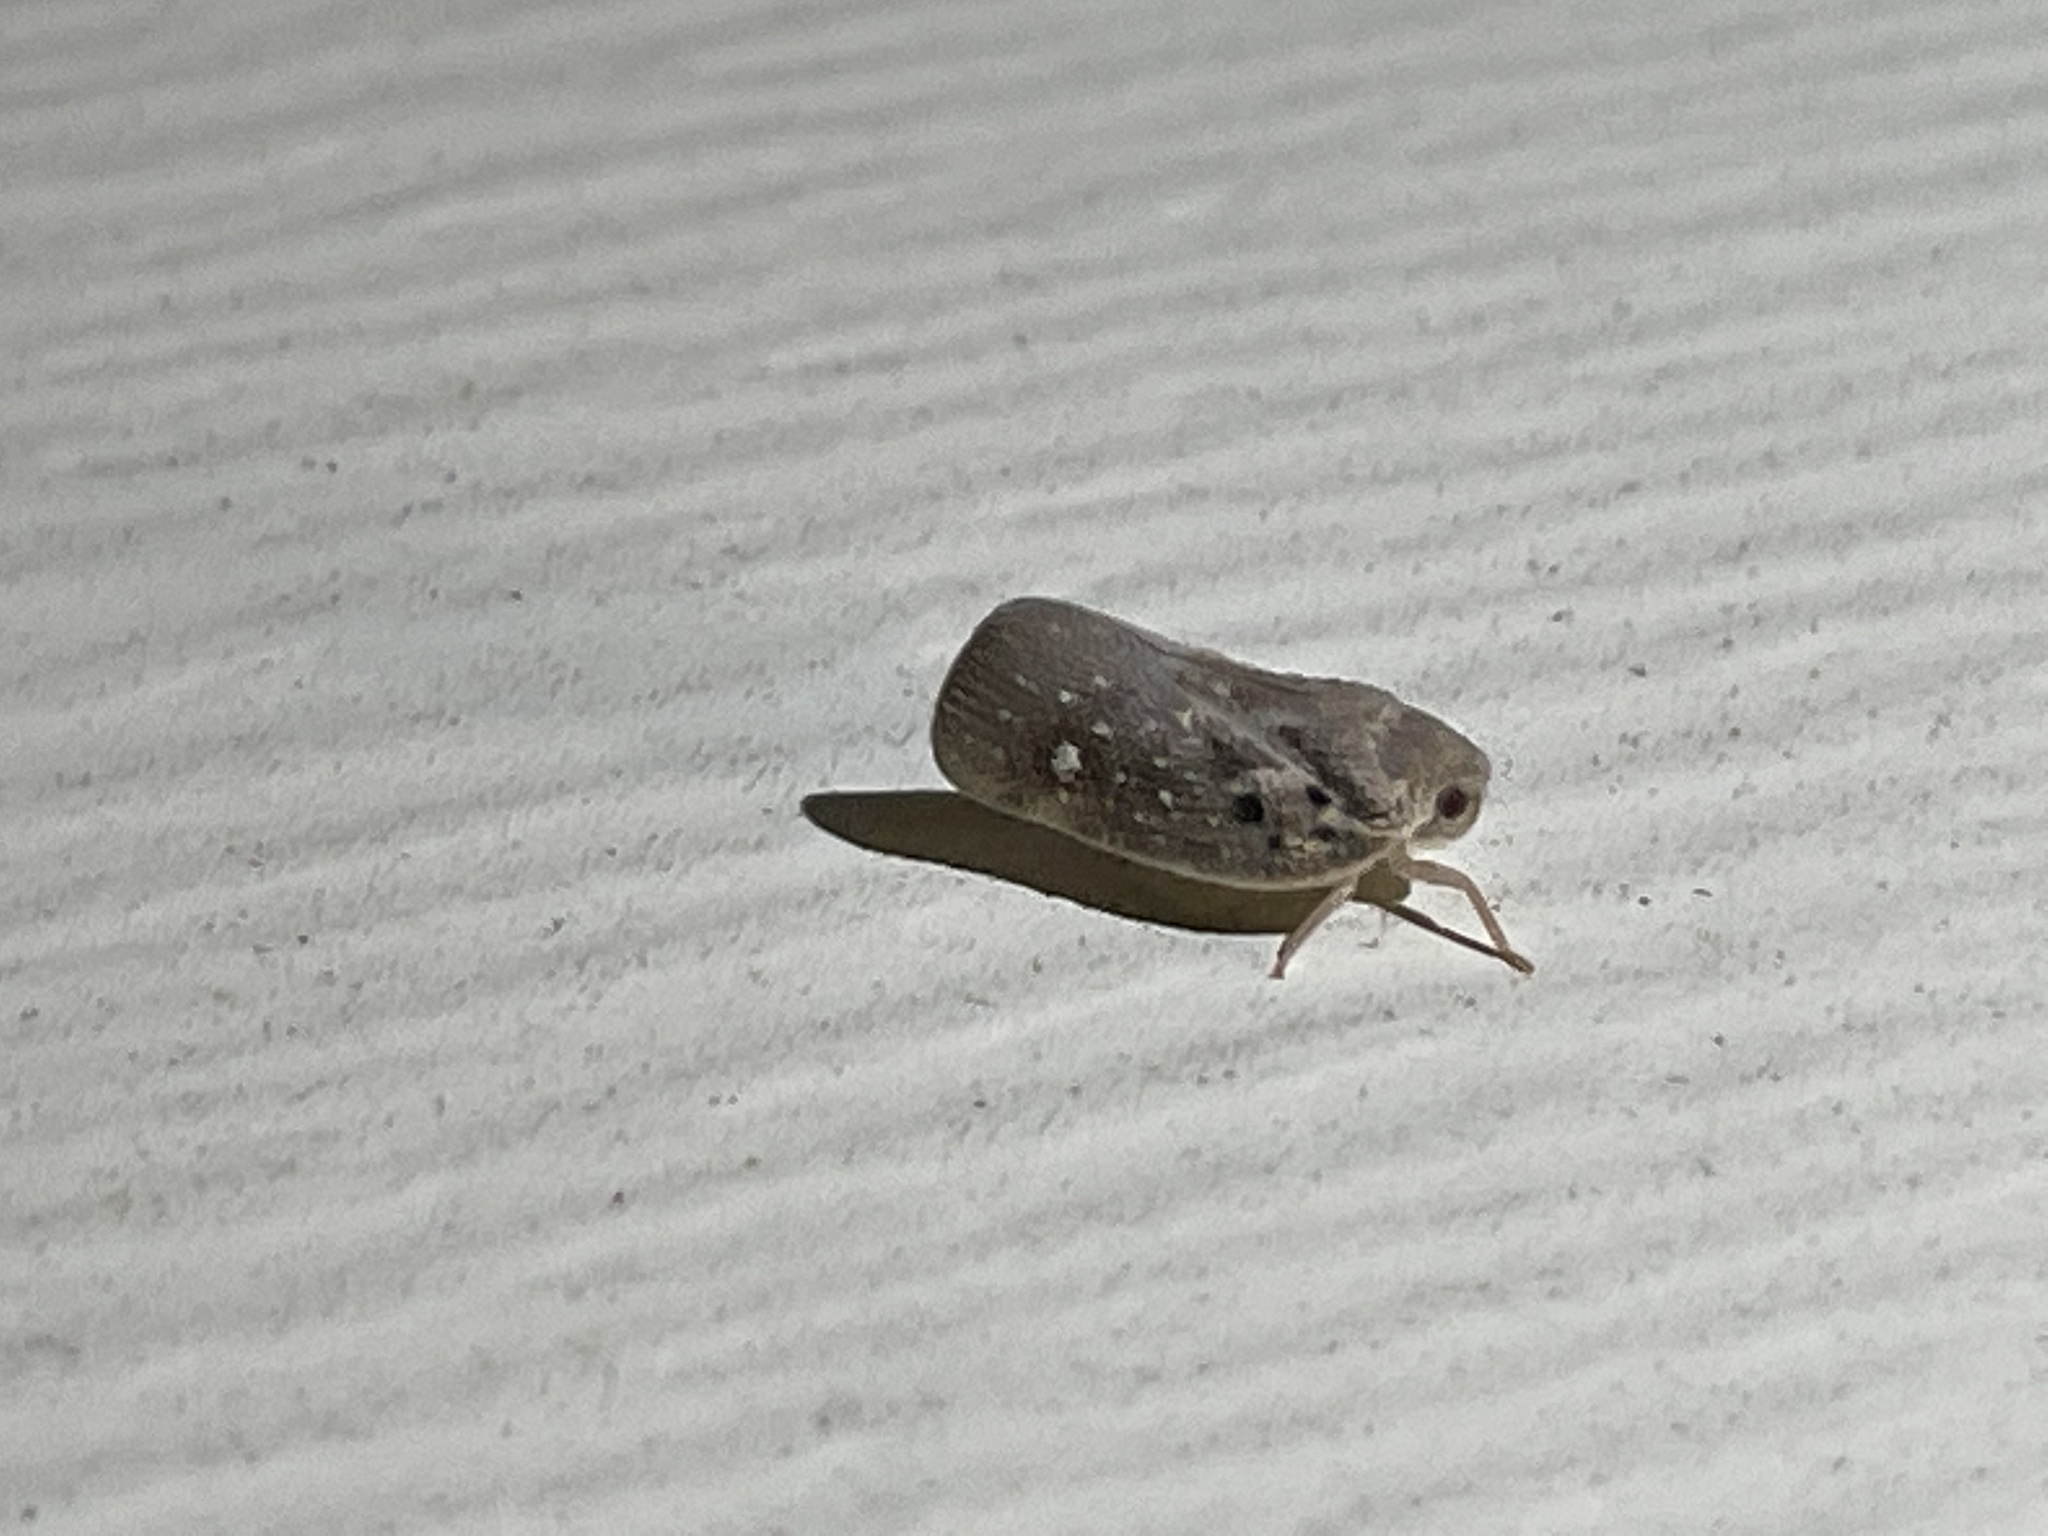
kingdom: Animalia
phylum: Arthropoda
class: Insecta
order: Hemiptera
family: Flatidae
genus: Metcalfa
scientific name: Metcalfa pruinosa
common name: Citrus flatid planthopper
